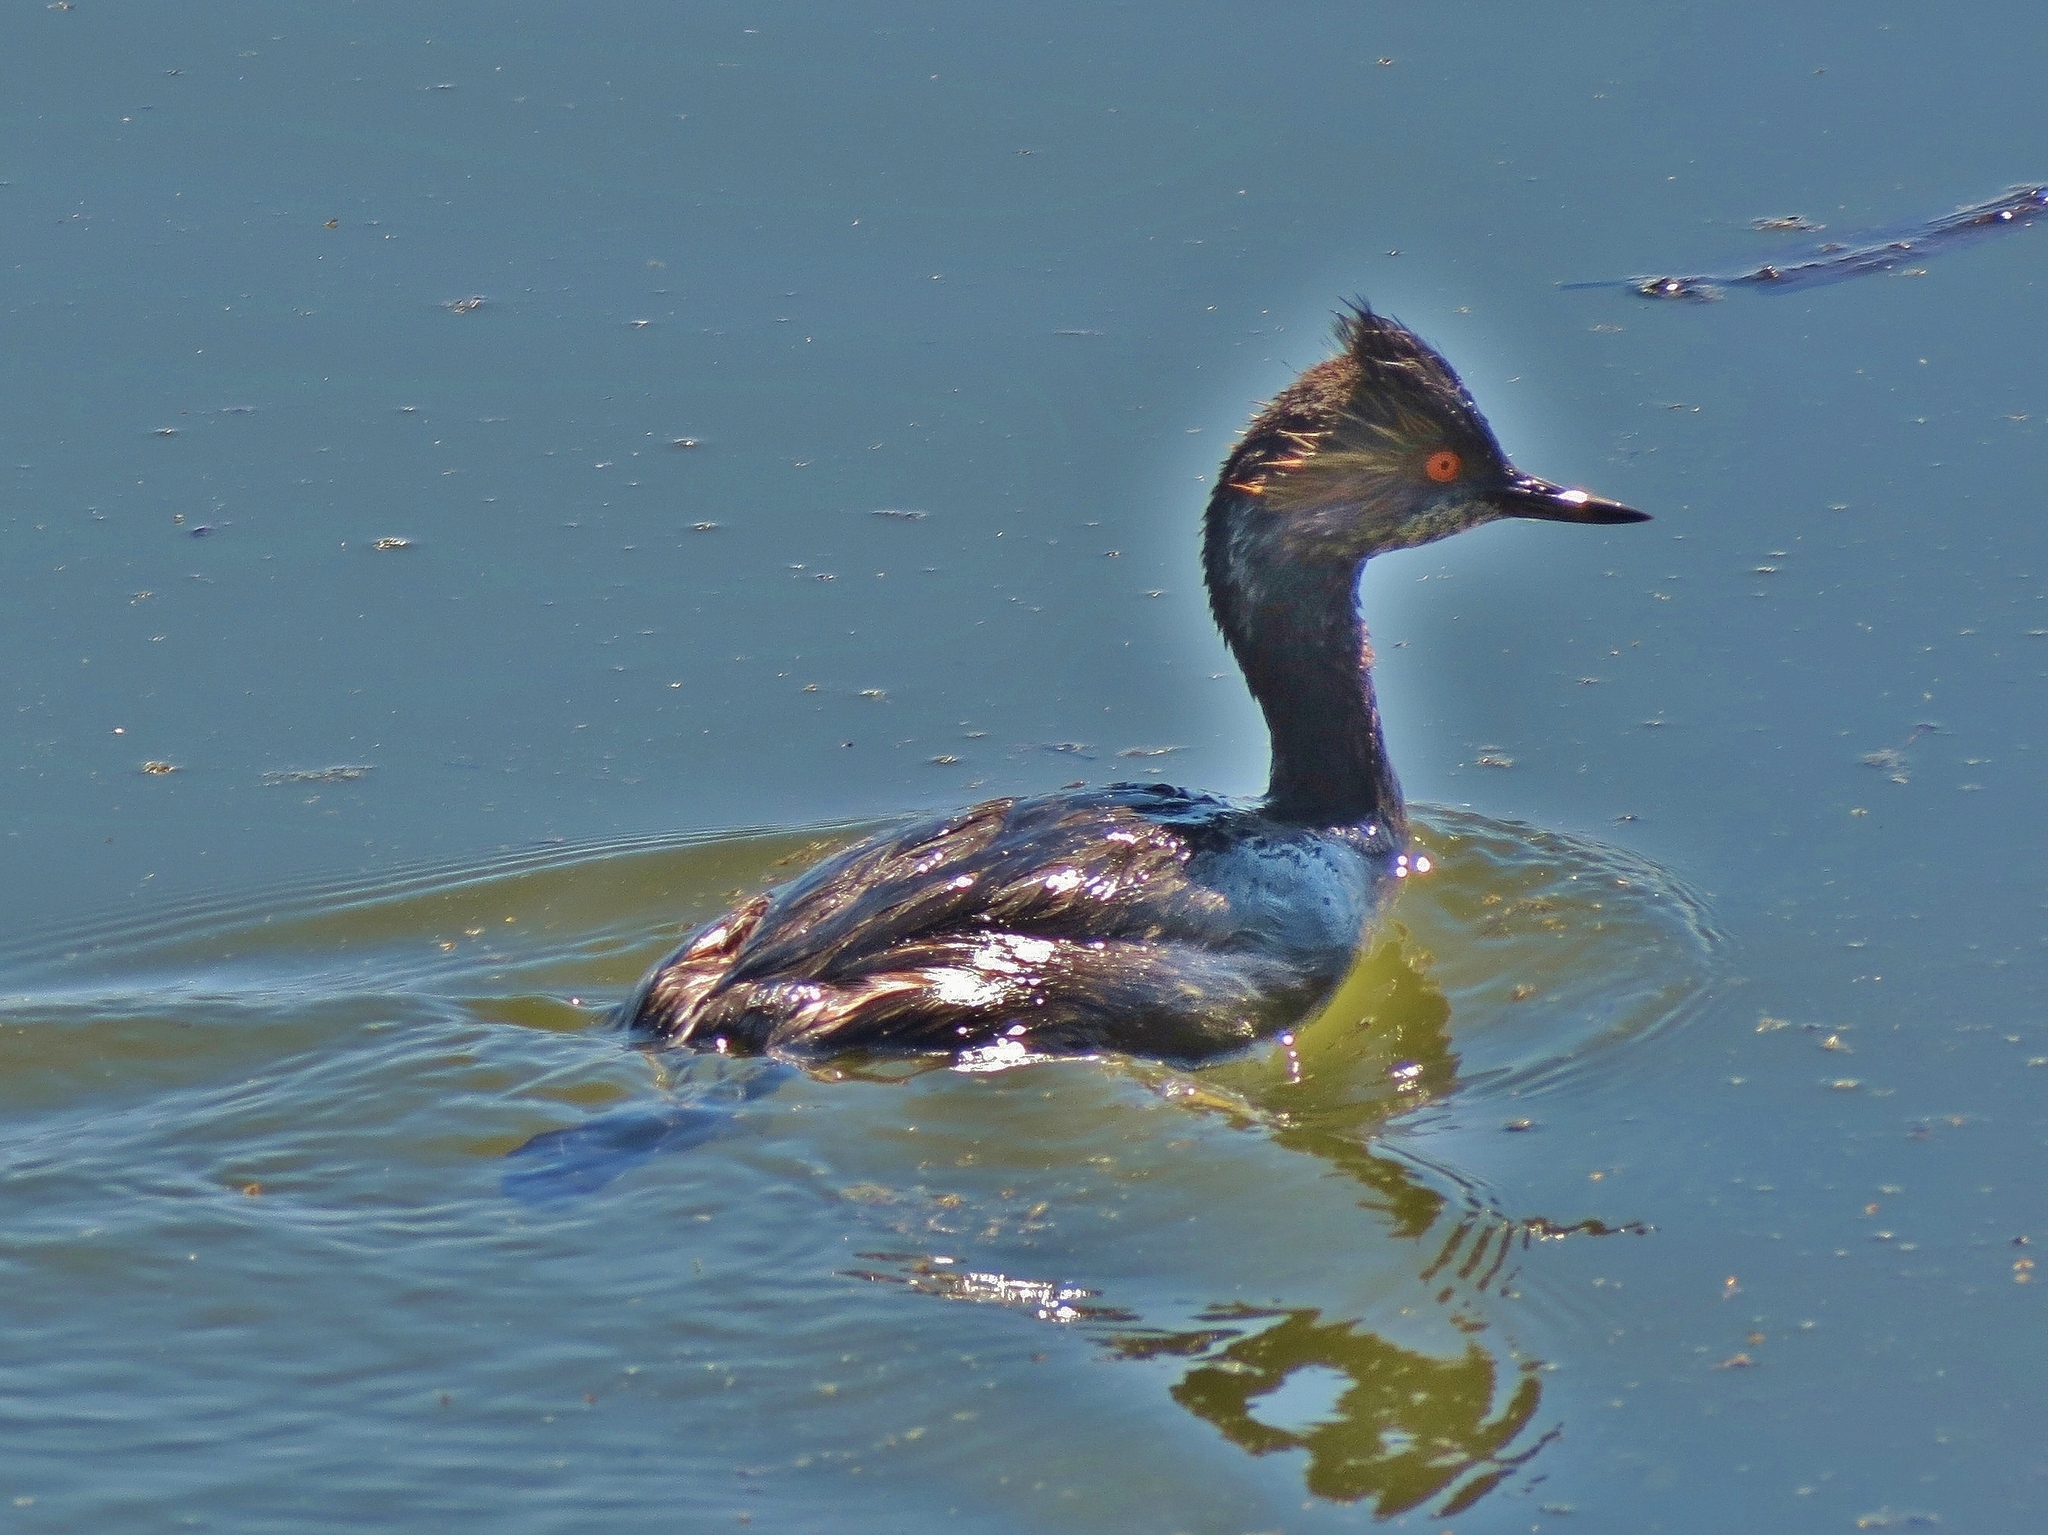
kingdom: Animalia
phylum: Chordata
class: Aves
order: Podicipediformes
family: Podicipedidae
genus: Podiceps
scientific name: Podiceps nigricollis
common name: Black-necked grebe
